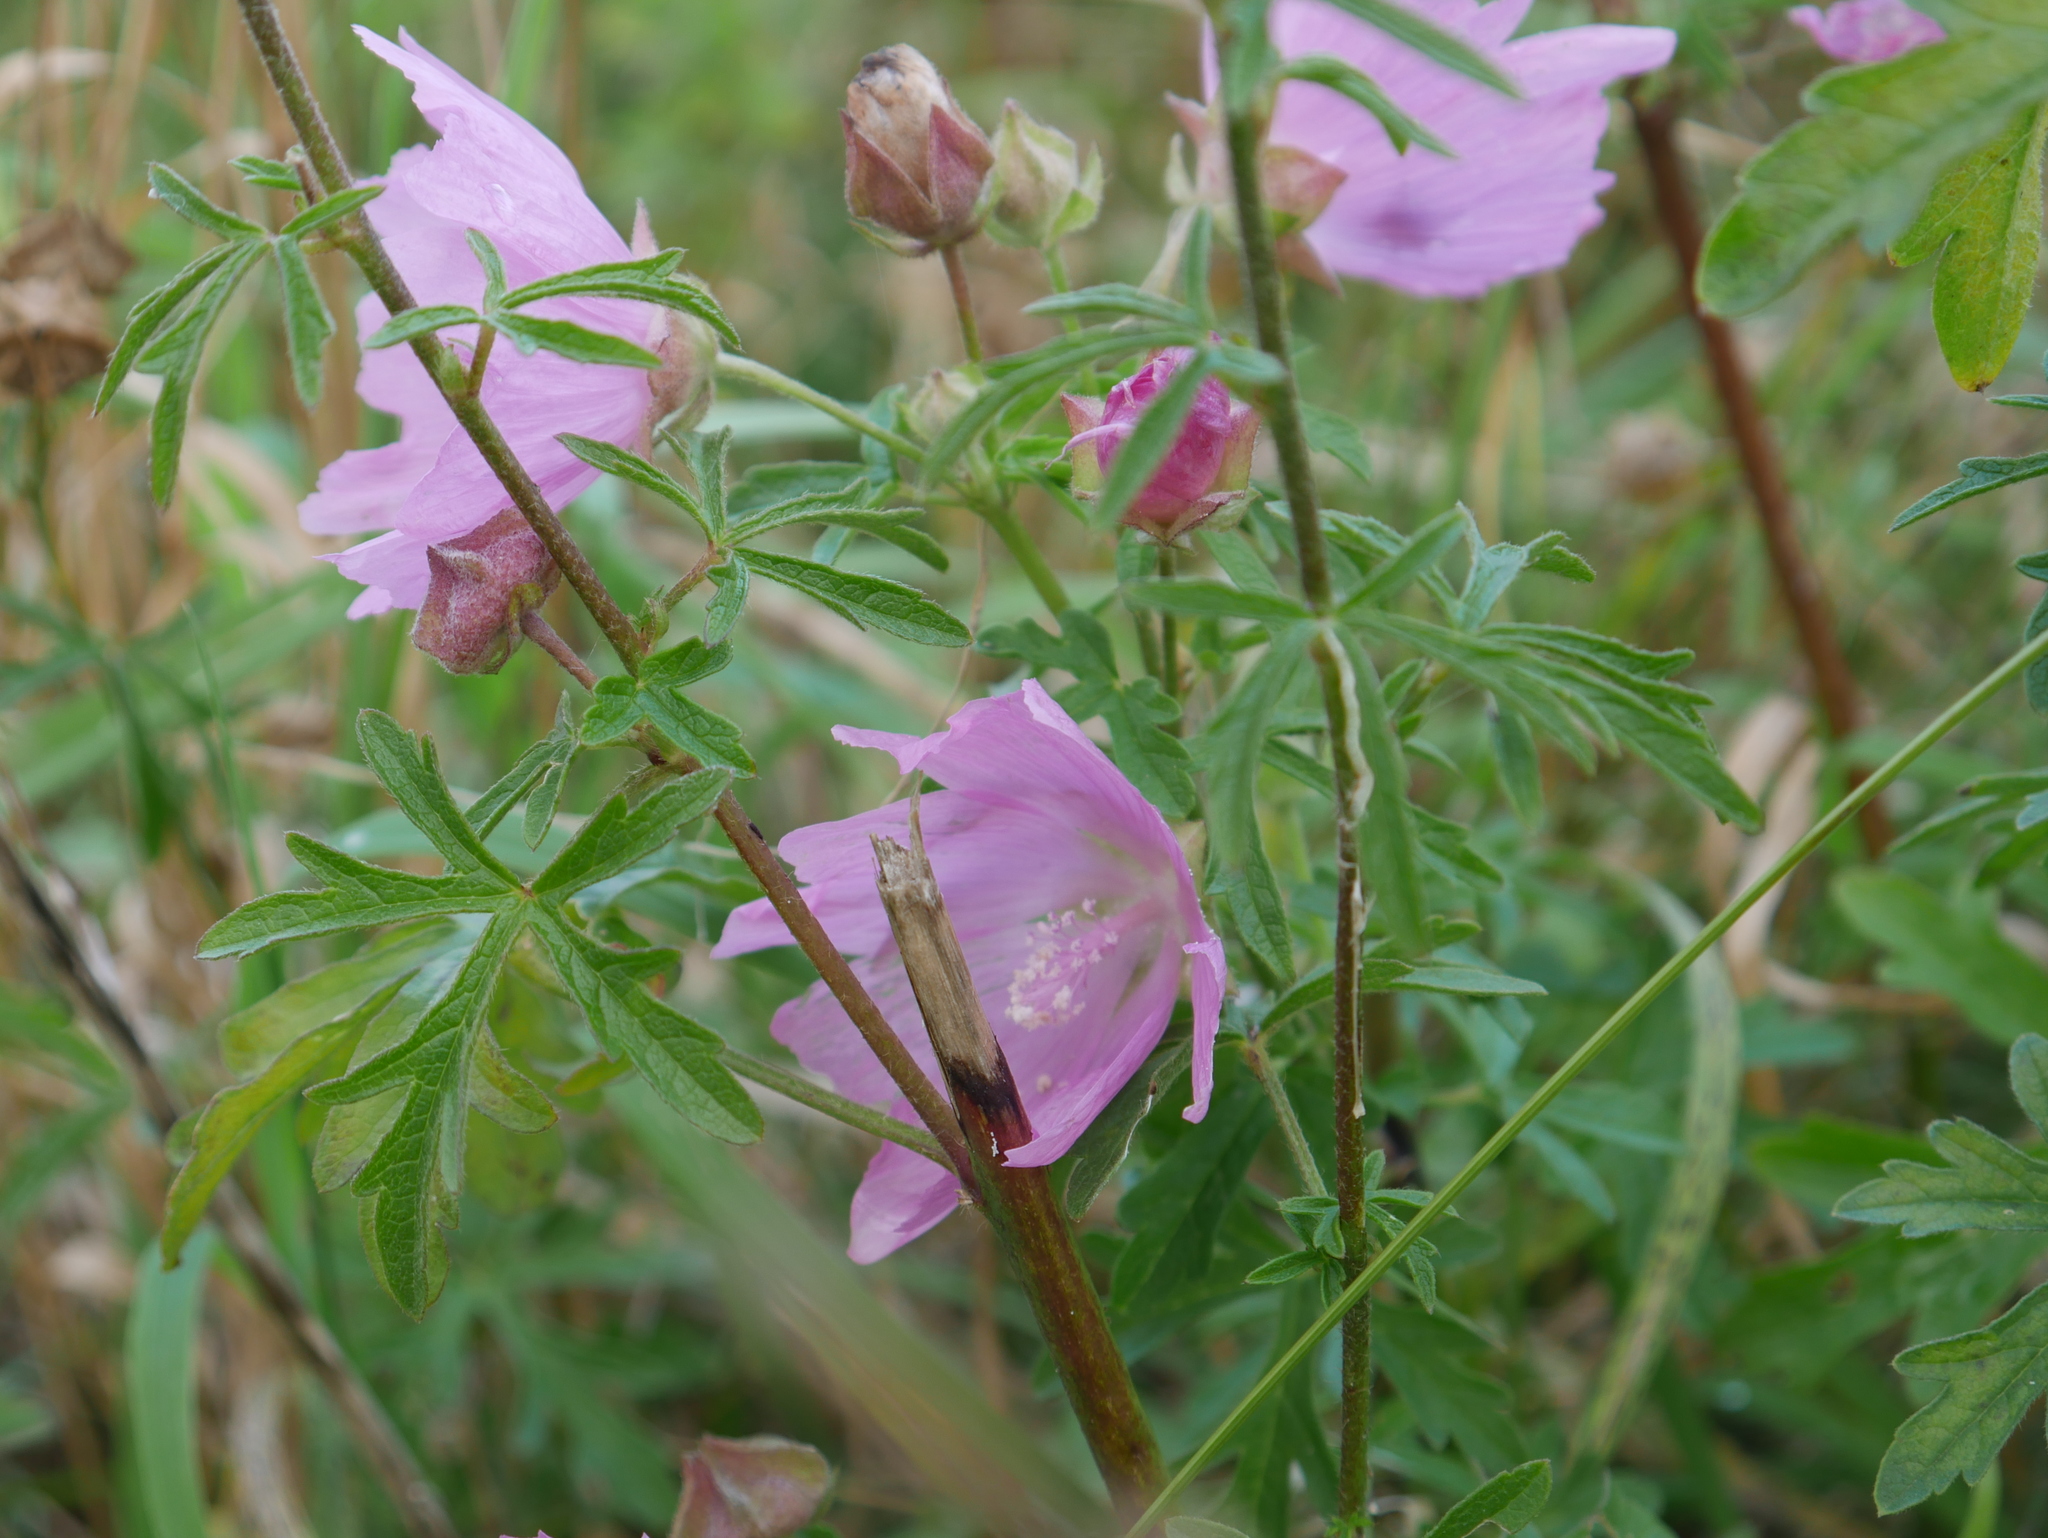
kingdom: Plantae
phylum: Tracheophyta
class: Magnoliopsida
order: Malvales
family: Malvaceae
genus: Malva
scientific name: Malva alcea
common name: Greater musk-mallow
